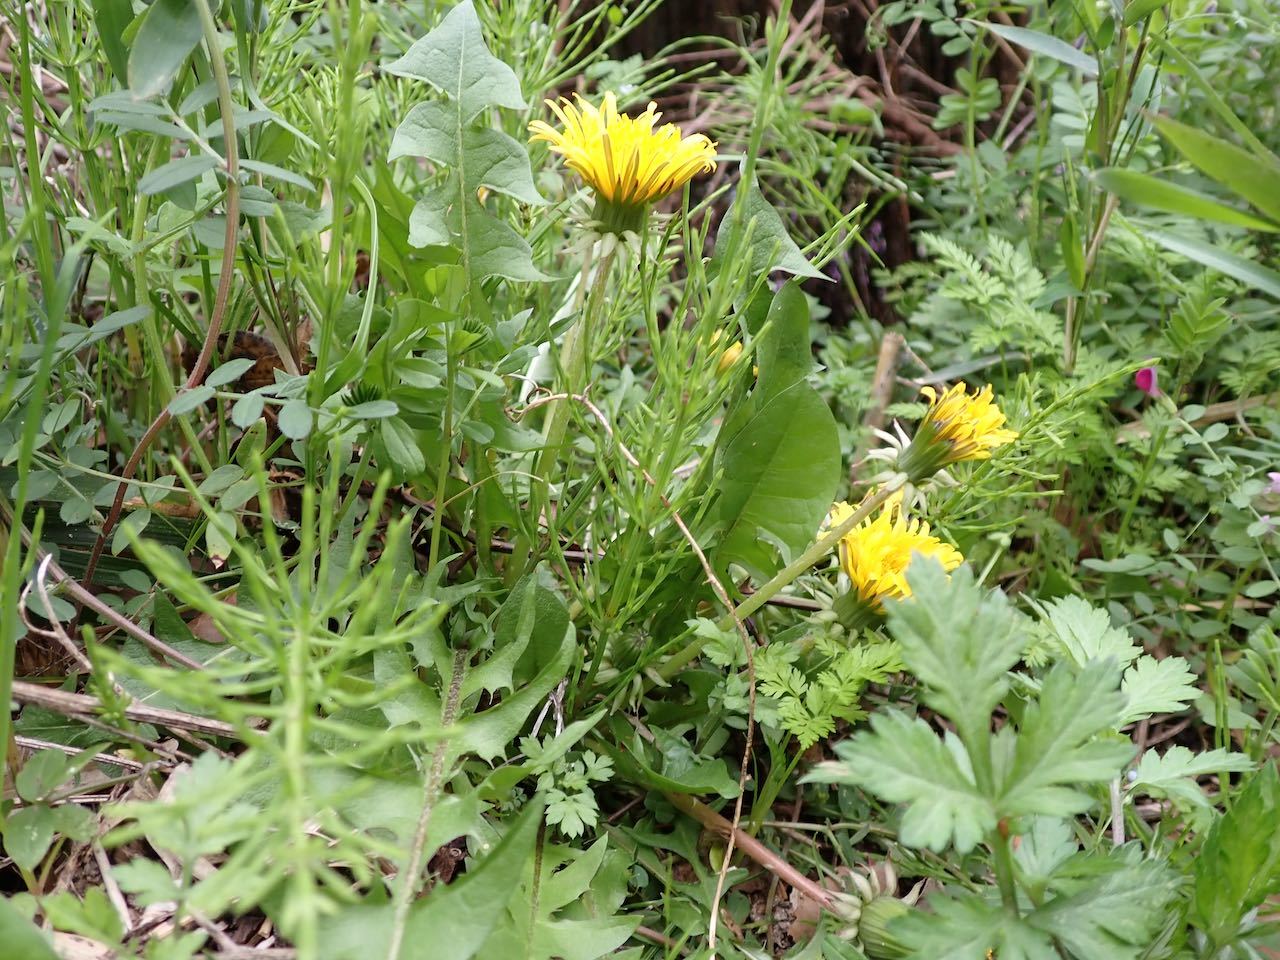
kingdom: Plantae
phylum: Tracheophyta
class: Magnoliopsida
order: Asterales
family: Asteraceae
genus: Taraxacum
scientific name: Taraxacum officinale
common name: Common dandelion
